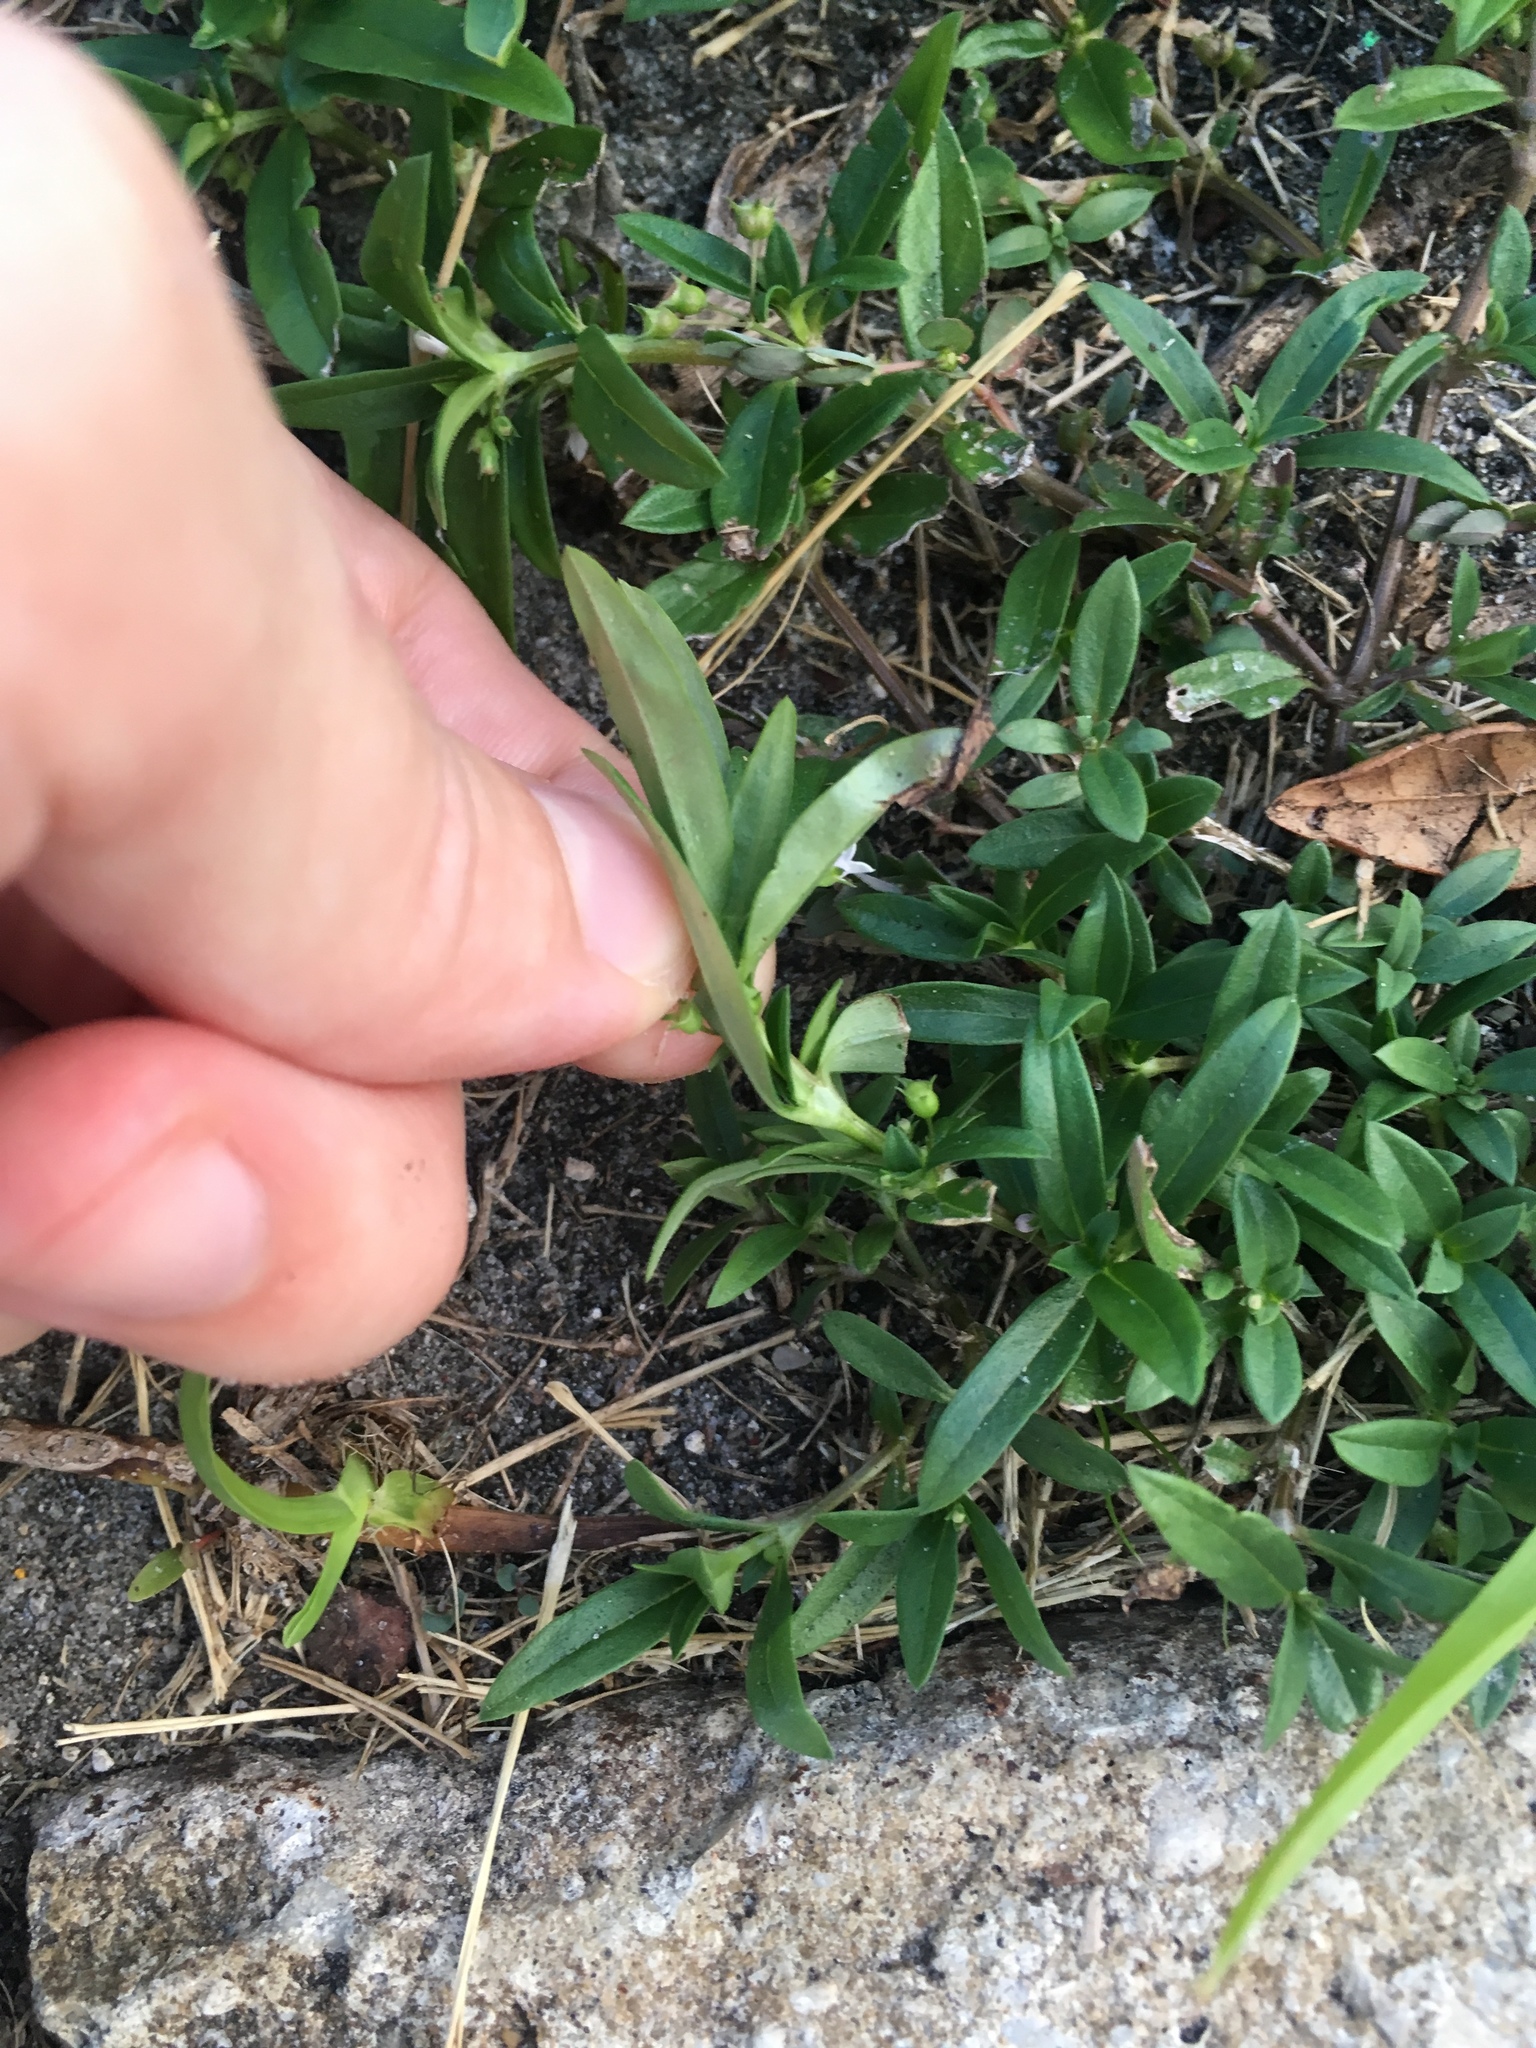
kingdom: Plantae
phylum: Tracheophyta
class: Magnoliopsida
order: Gentianales
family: Rubiaceae
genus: Oldenlandia
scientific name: Oldenlandia corymbosa
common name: Flat-top mille graines
